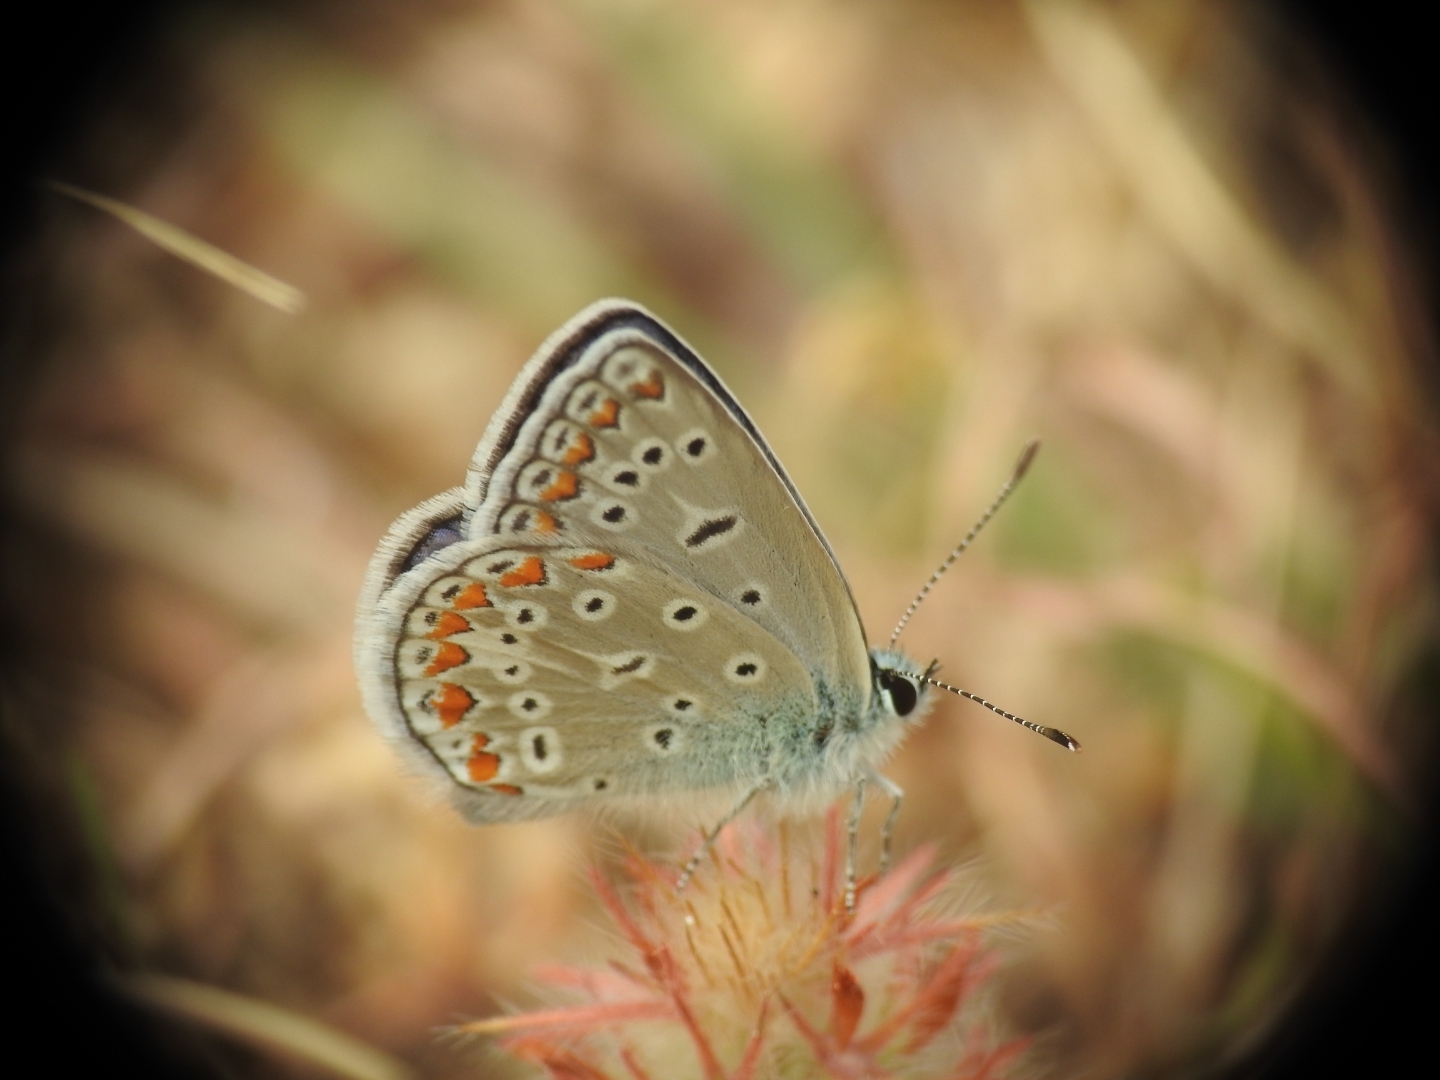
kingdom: Animalia
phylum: Arthropoda
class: Insecta
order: Lepidoptera
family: Lycaenidae
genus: Polyommatus
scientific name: Polyommatus icarus
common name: Common blue
